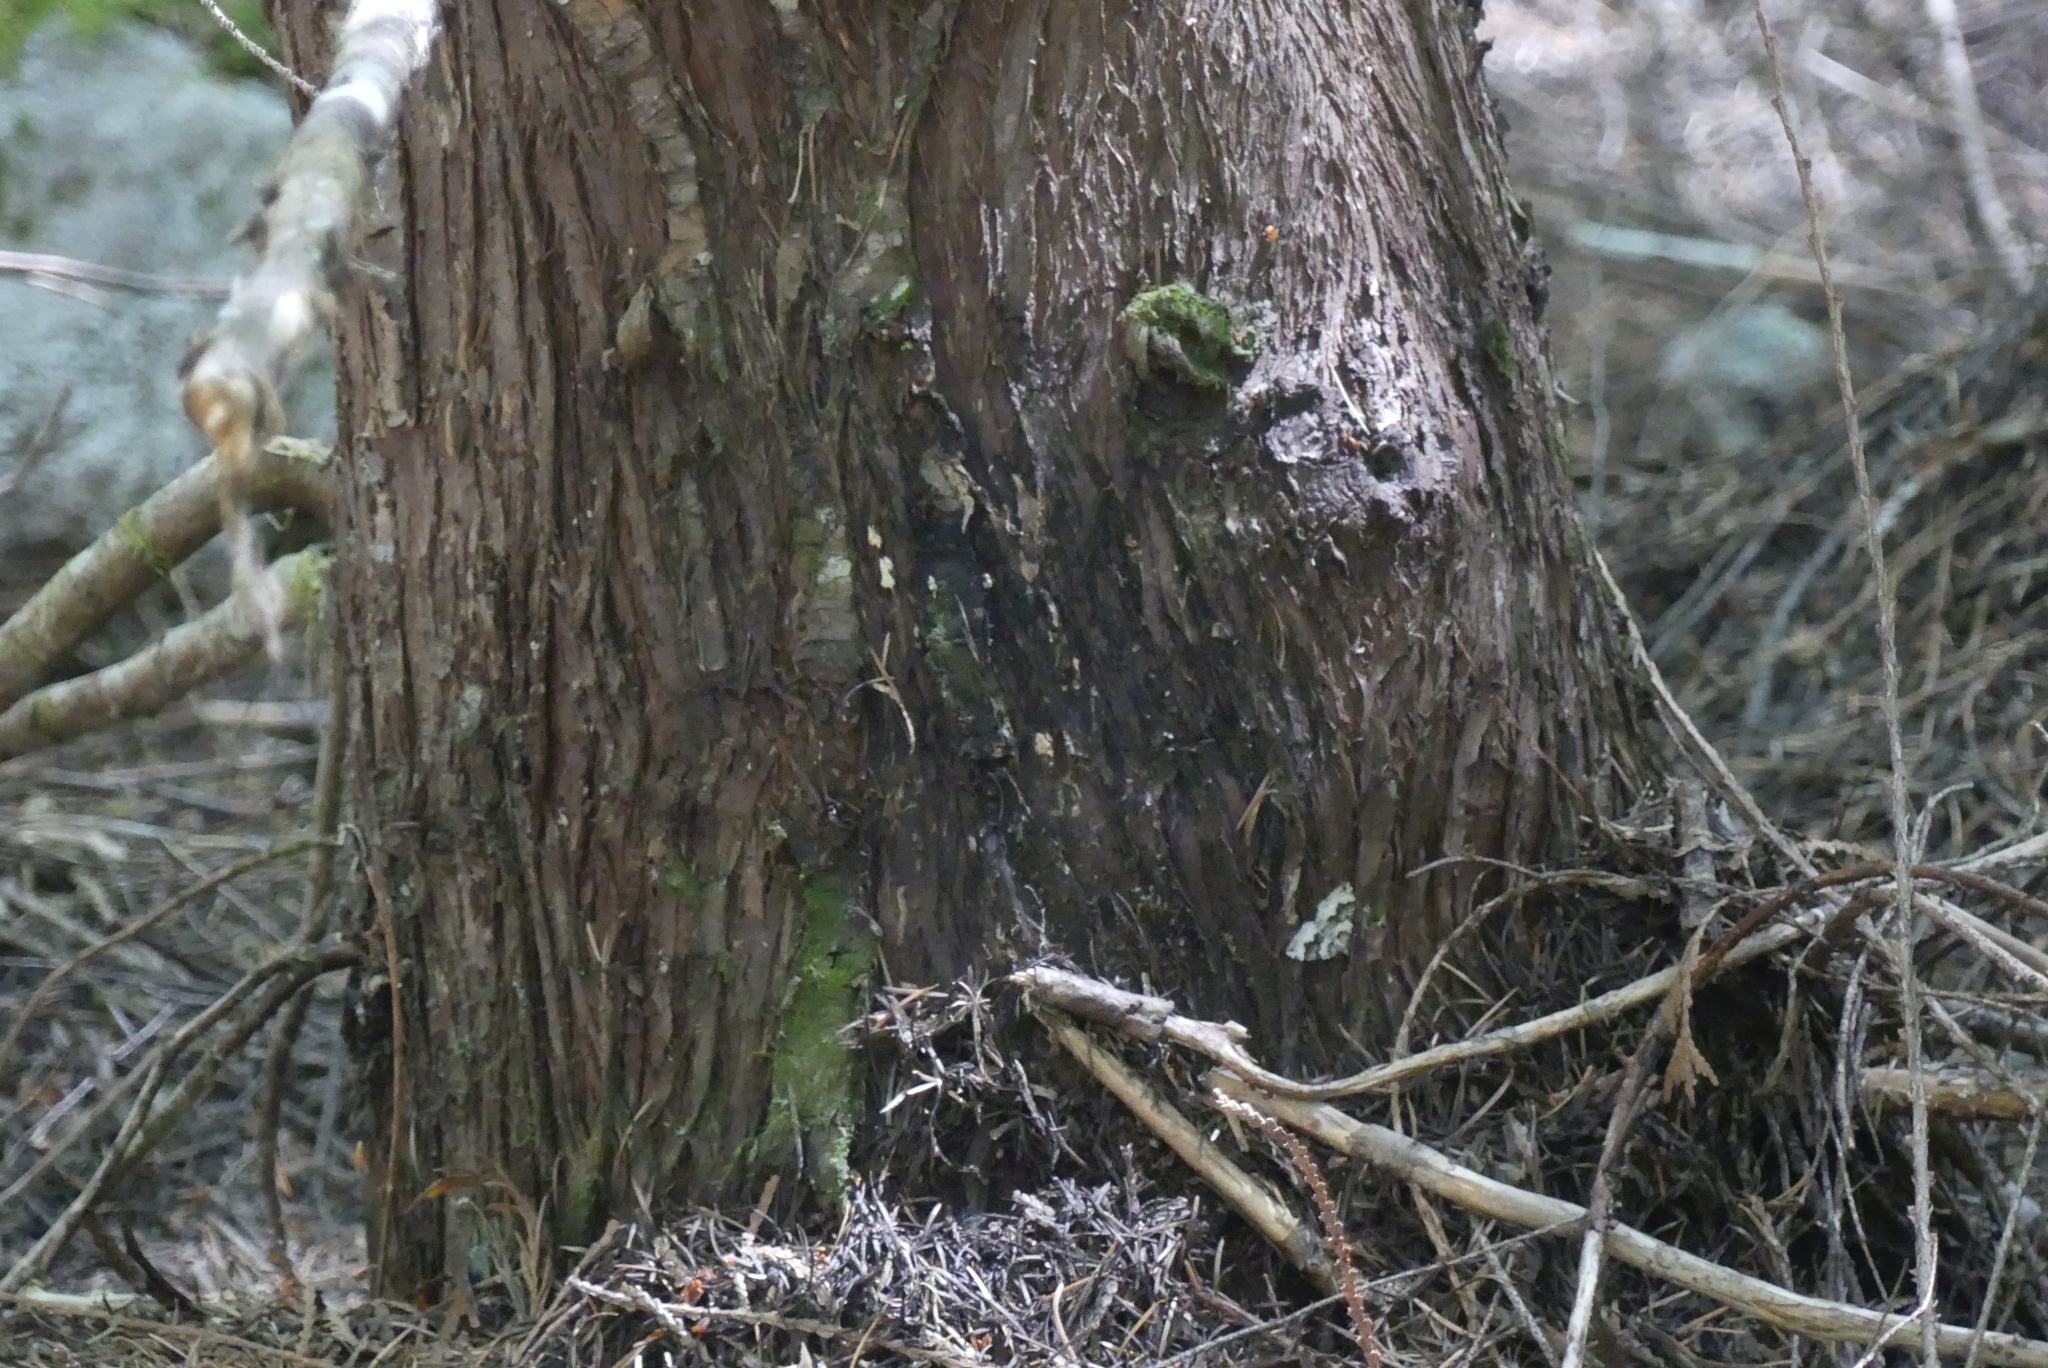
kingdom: Animalia
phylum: Arthropoda
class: Insecta
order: Lepidoptera
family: Geometridae
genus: Eustroma
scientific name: Eustroma semiatrata
